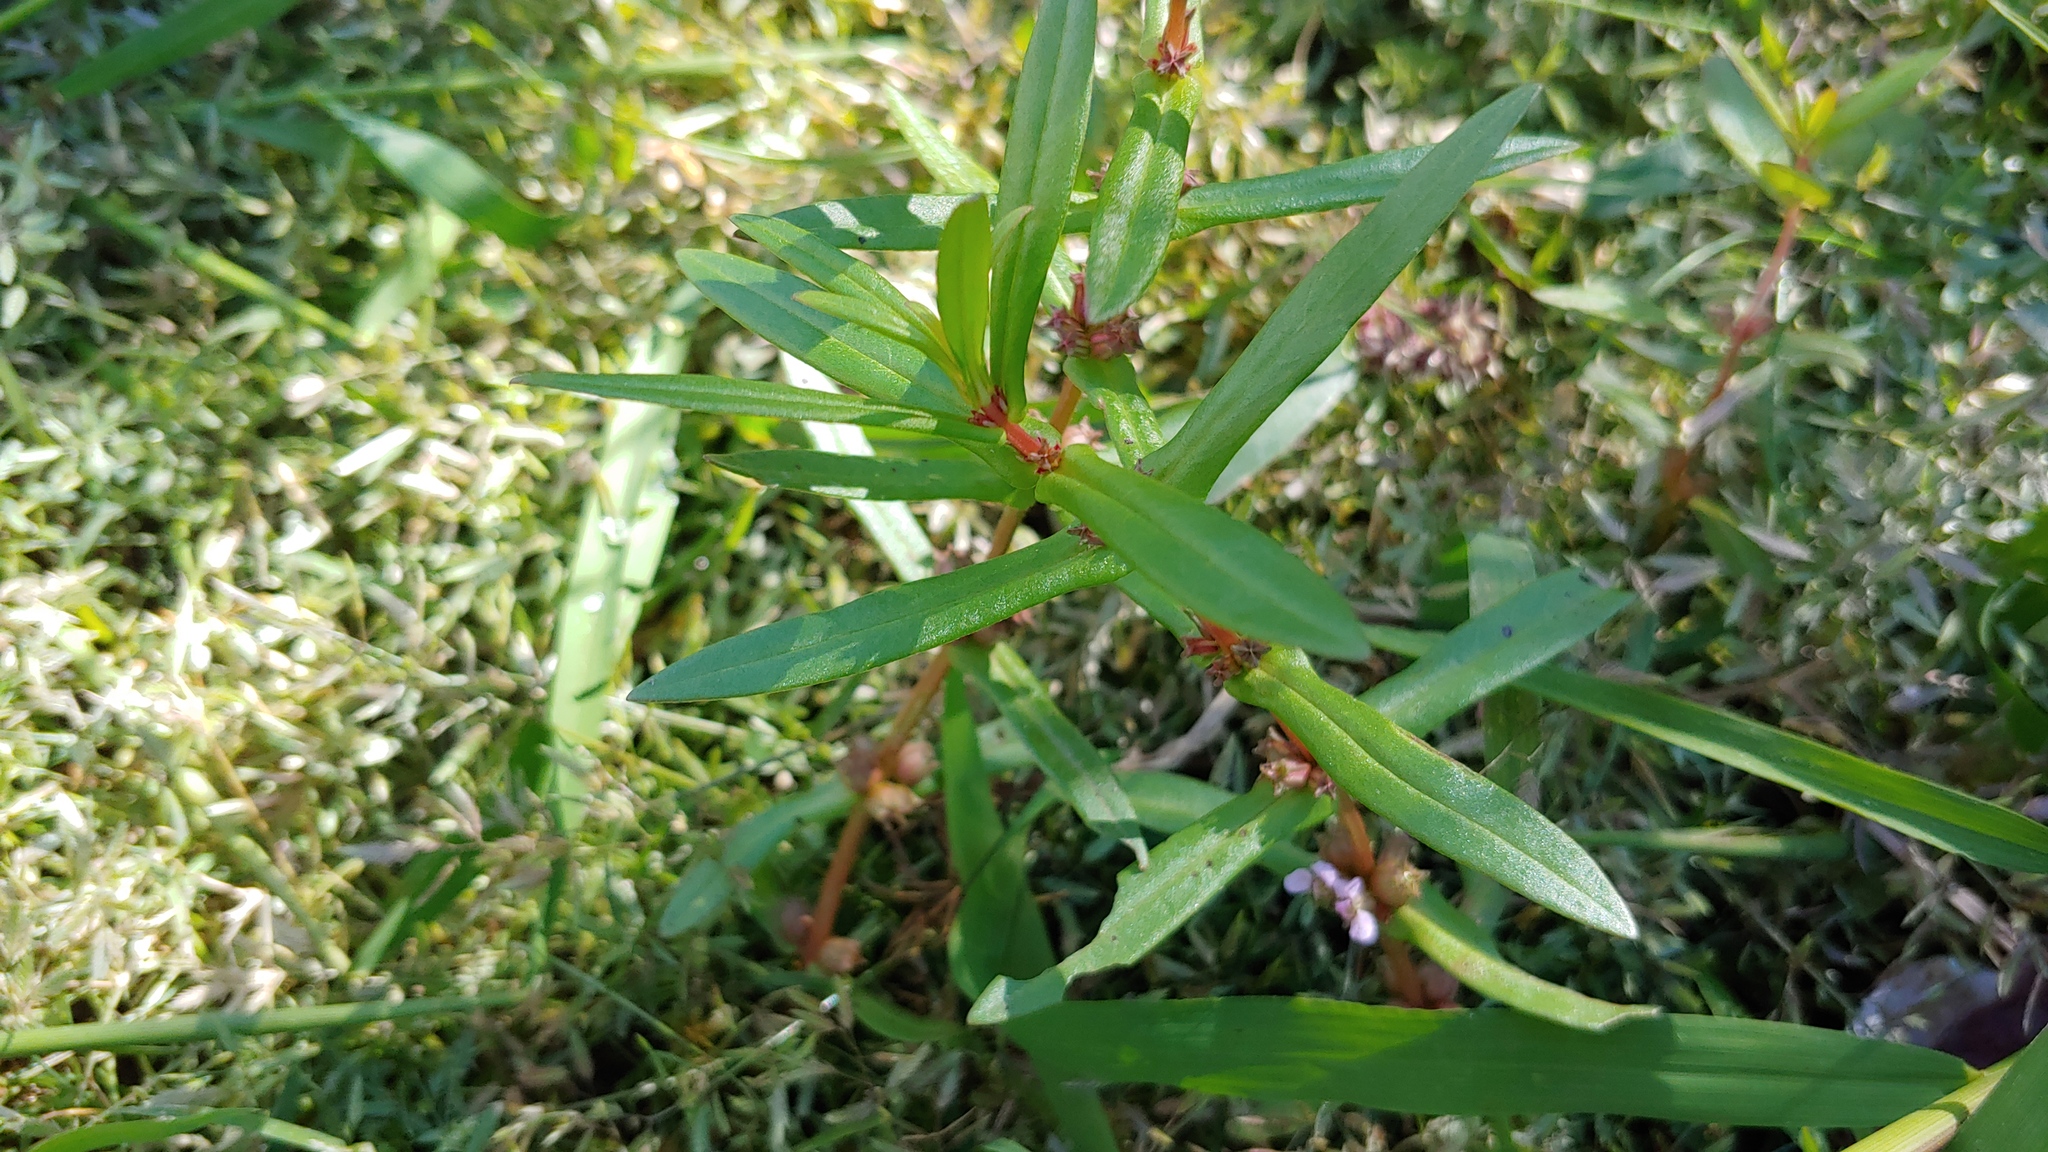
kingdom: Plantae
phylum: Tracheophyta
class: Magnoliopsida
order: Myrtales
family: Lythraceae
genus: Ammannia
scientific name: Ammannia robusta
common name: Grand ammannia
